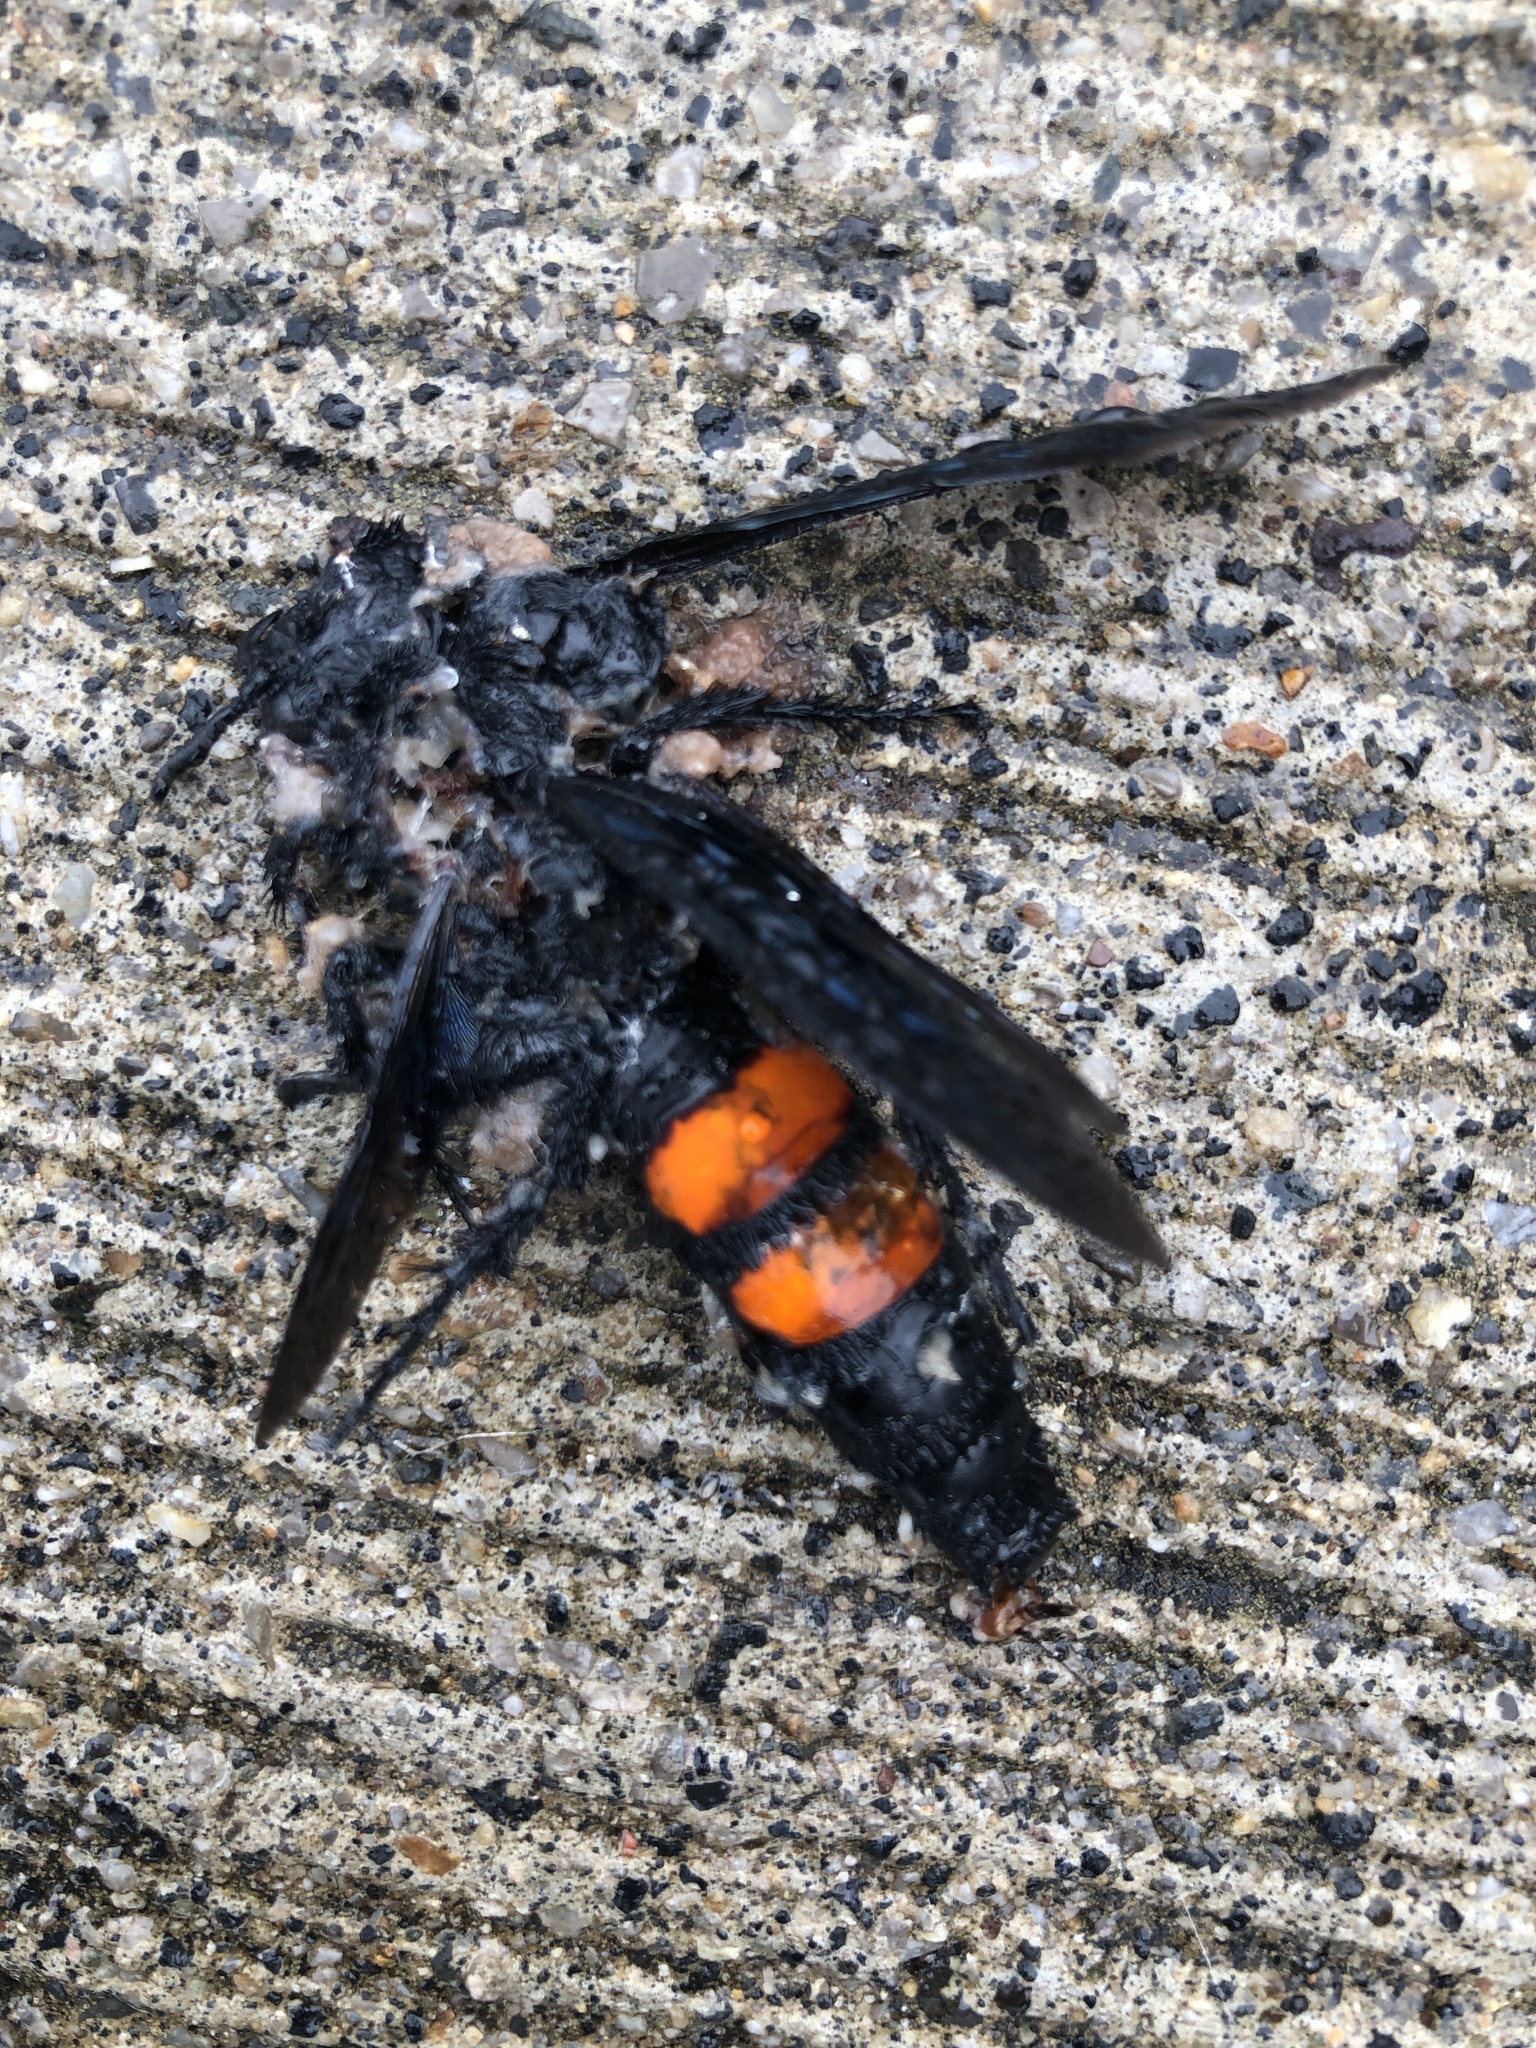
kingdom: Animalia
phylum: Arthropoda
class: Insecta
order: Hymenoptera
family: Scoliidae
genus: Pygodasis
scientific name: Pygodasis ephippium
